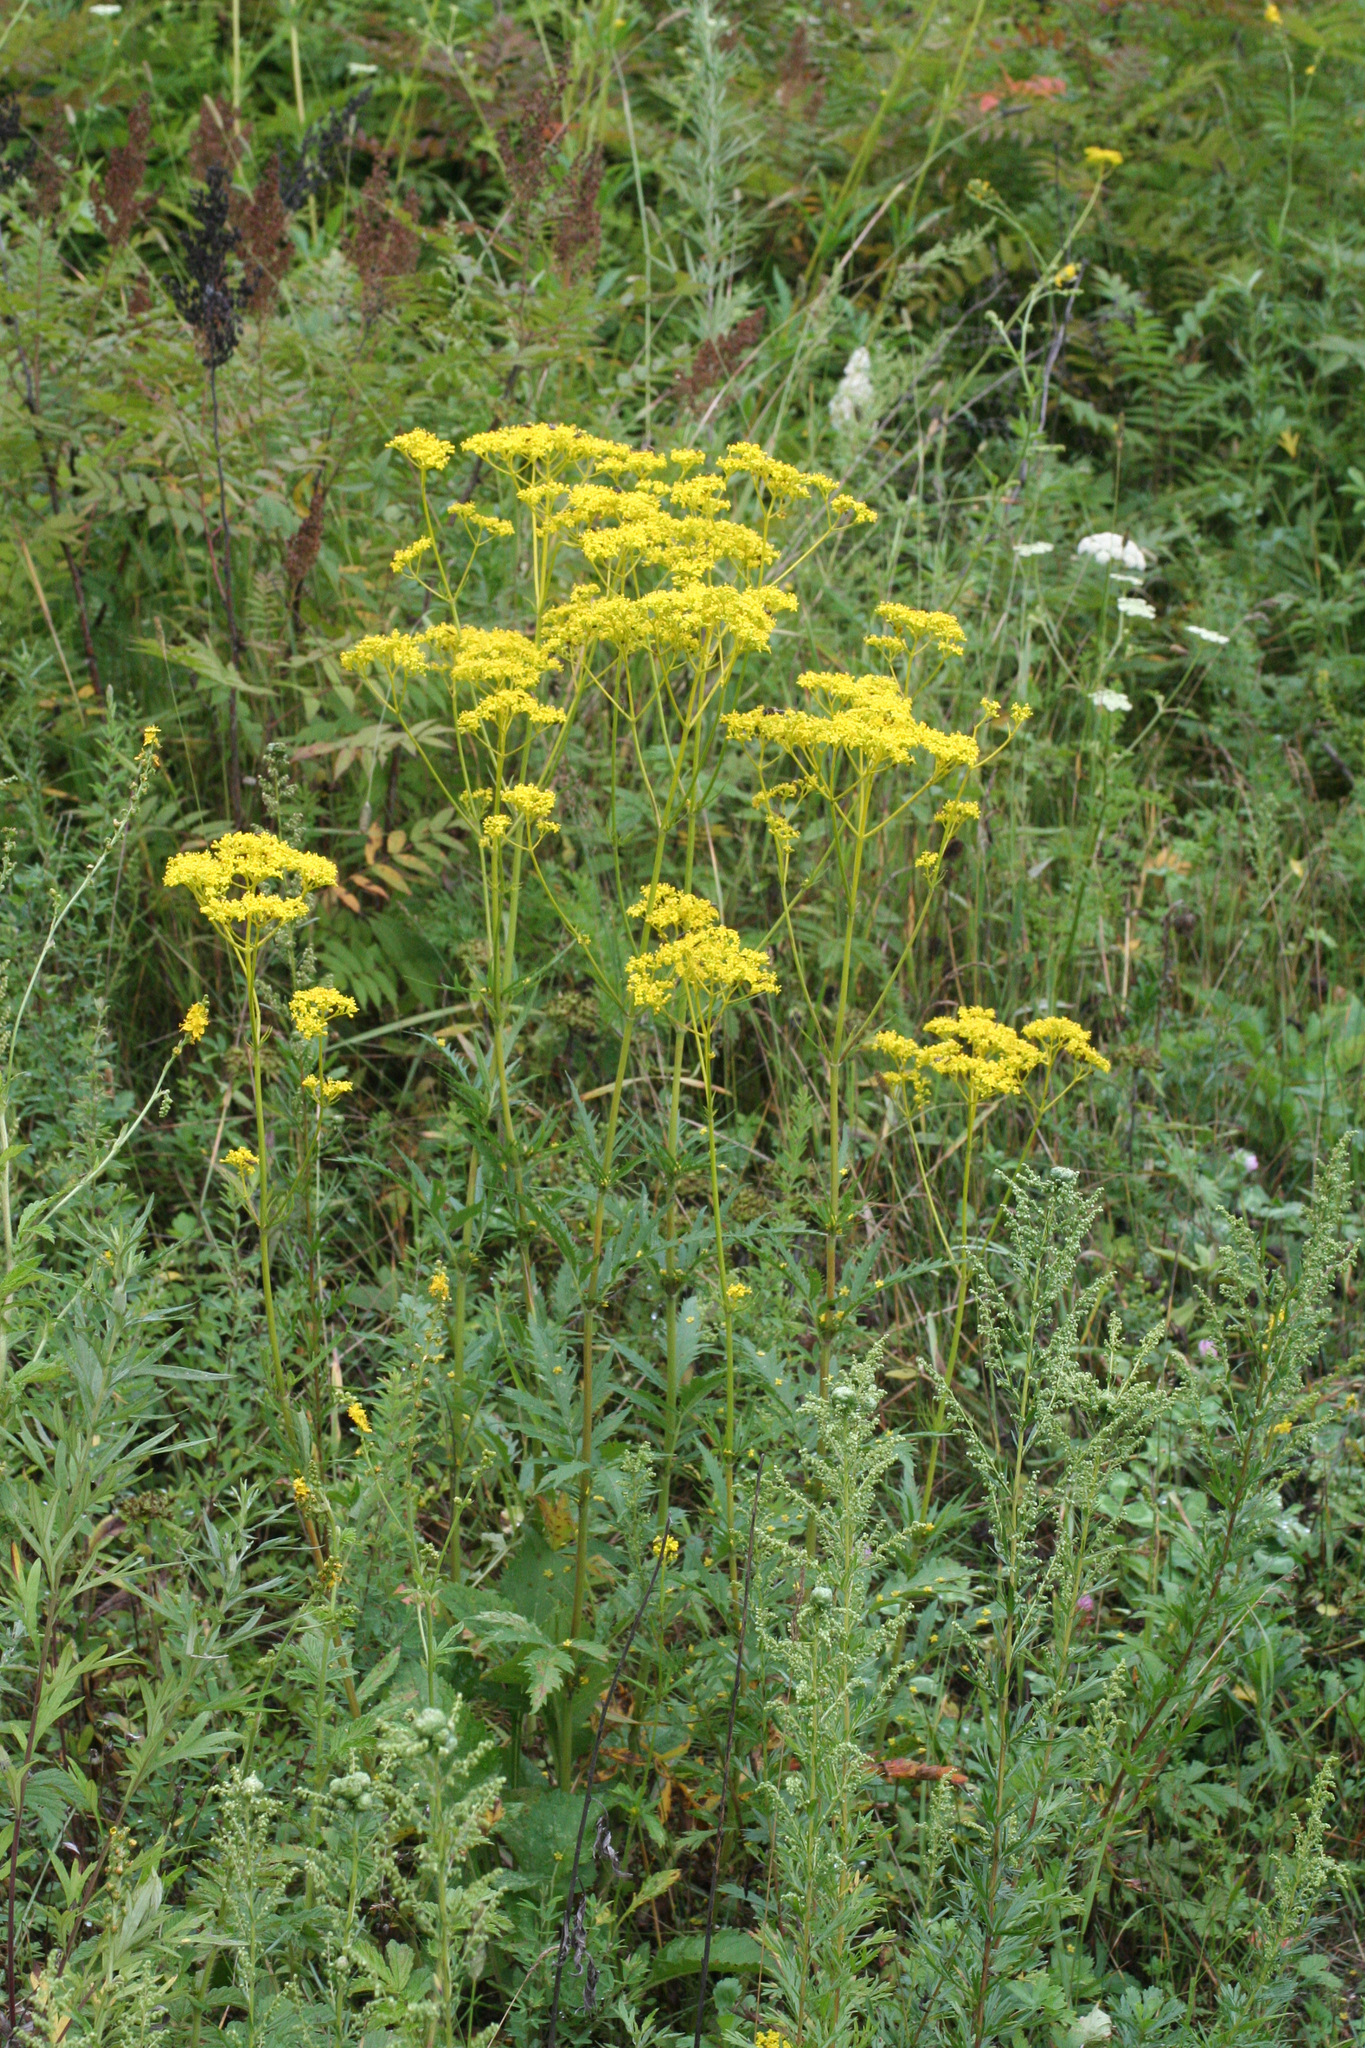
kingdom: Plantae
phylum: Tracheophyta
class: Magnoliopsida
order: Dipsacales
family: Caprifoliaceae
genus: Patrinia
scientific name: Patrinia scabiosifolia
